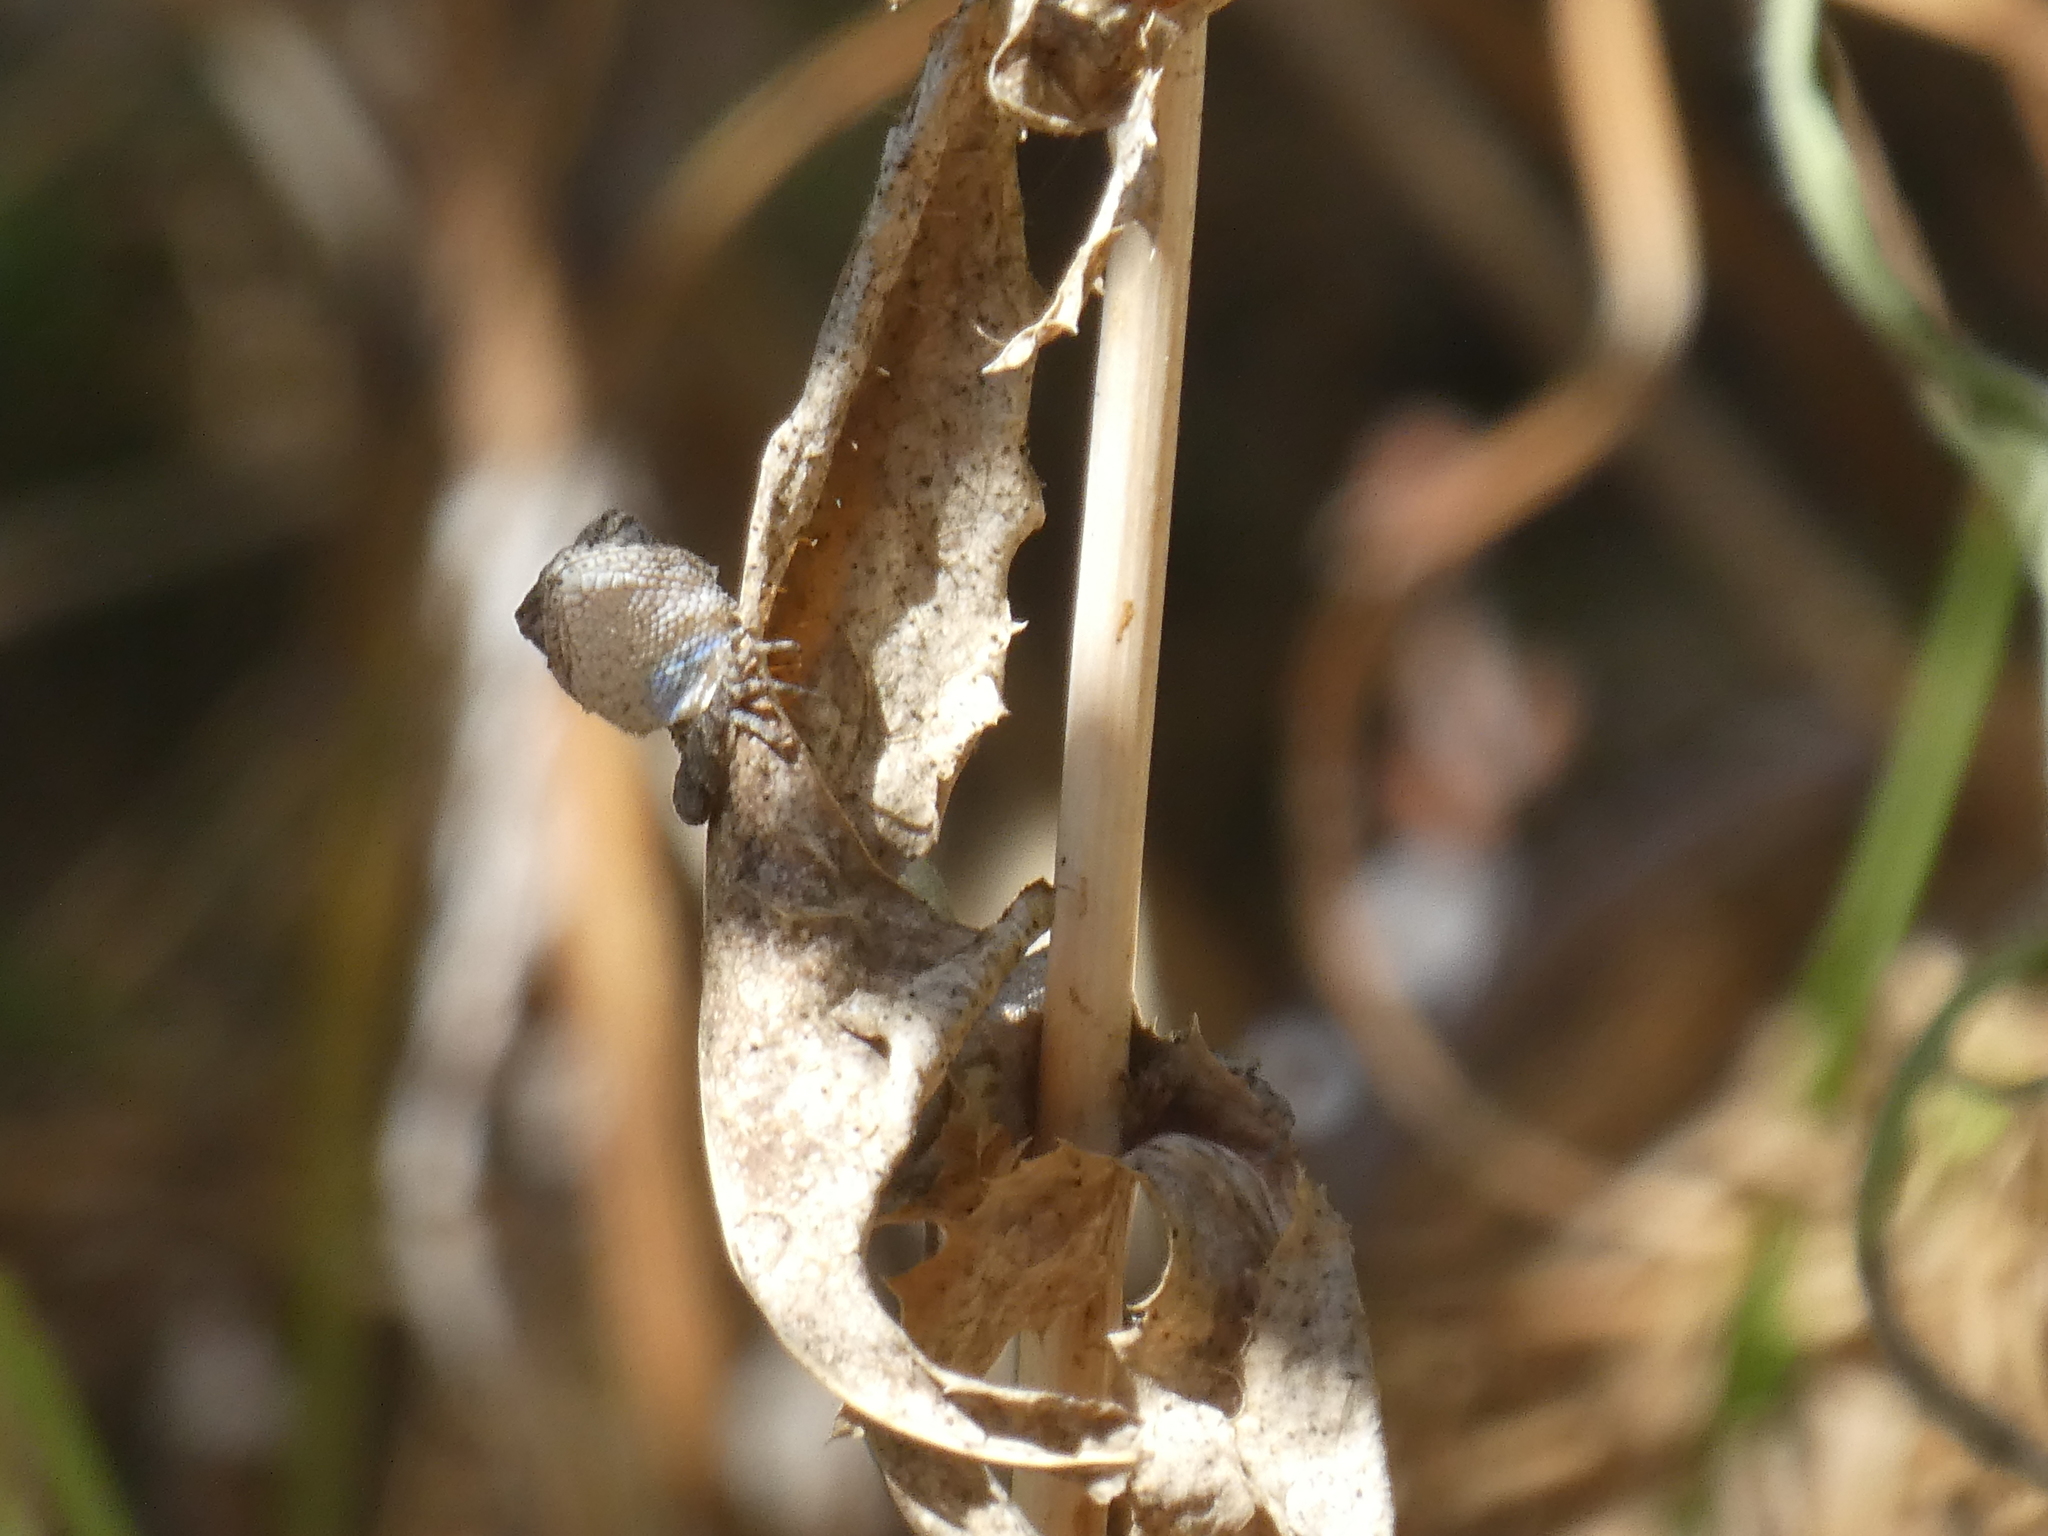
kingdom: Animalia
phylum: Chordata
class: Squamata
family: Phrynosomatidae
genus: Sceloporus
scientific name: Sceloporus occidentalis
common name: Western fence lizard
